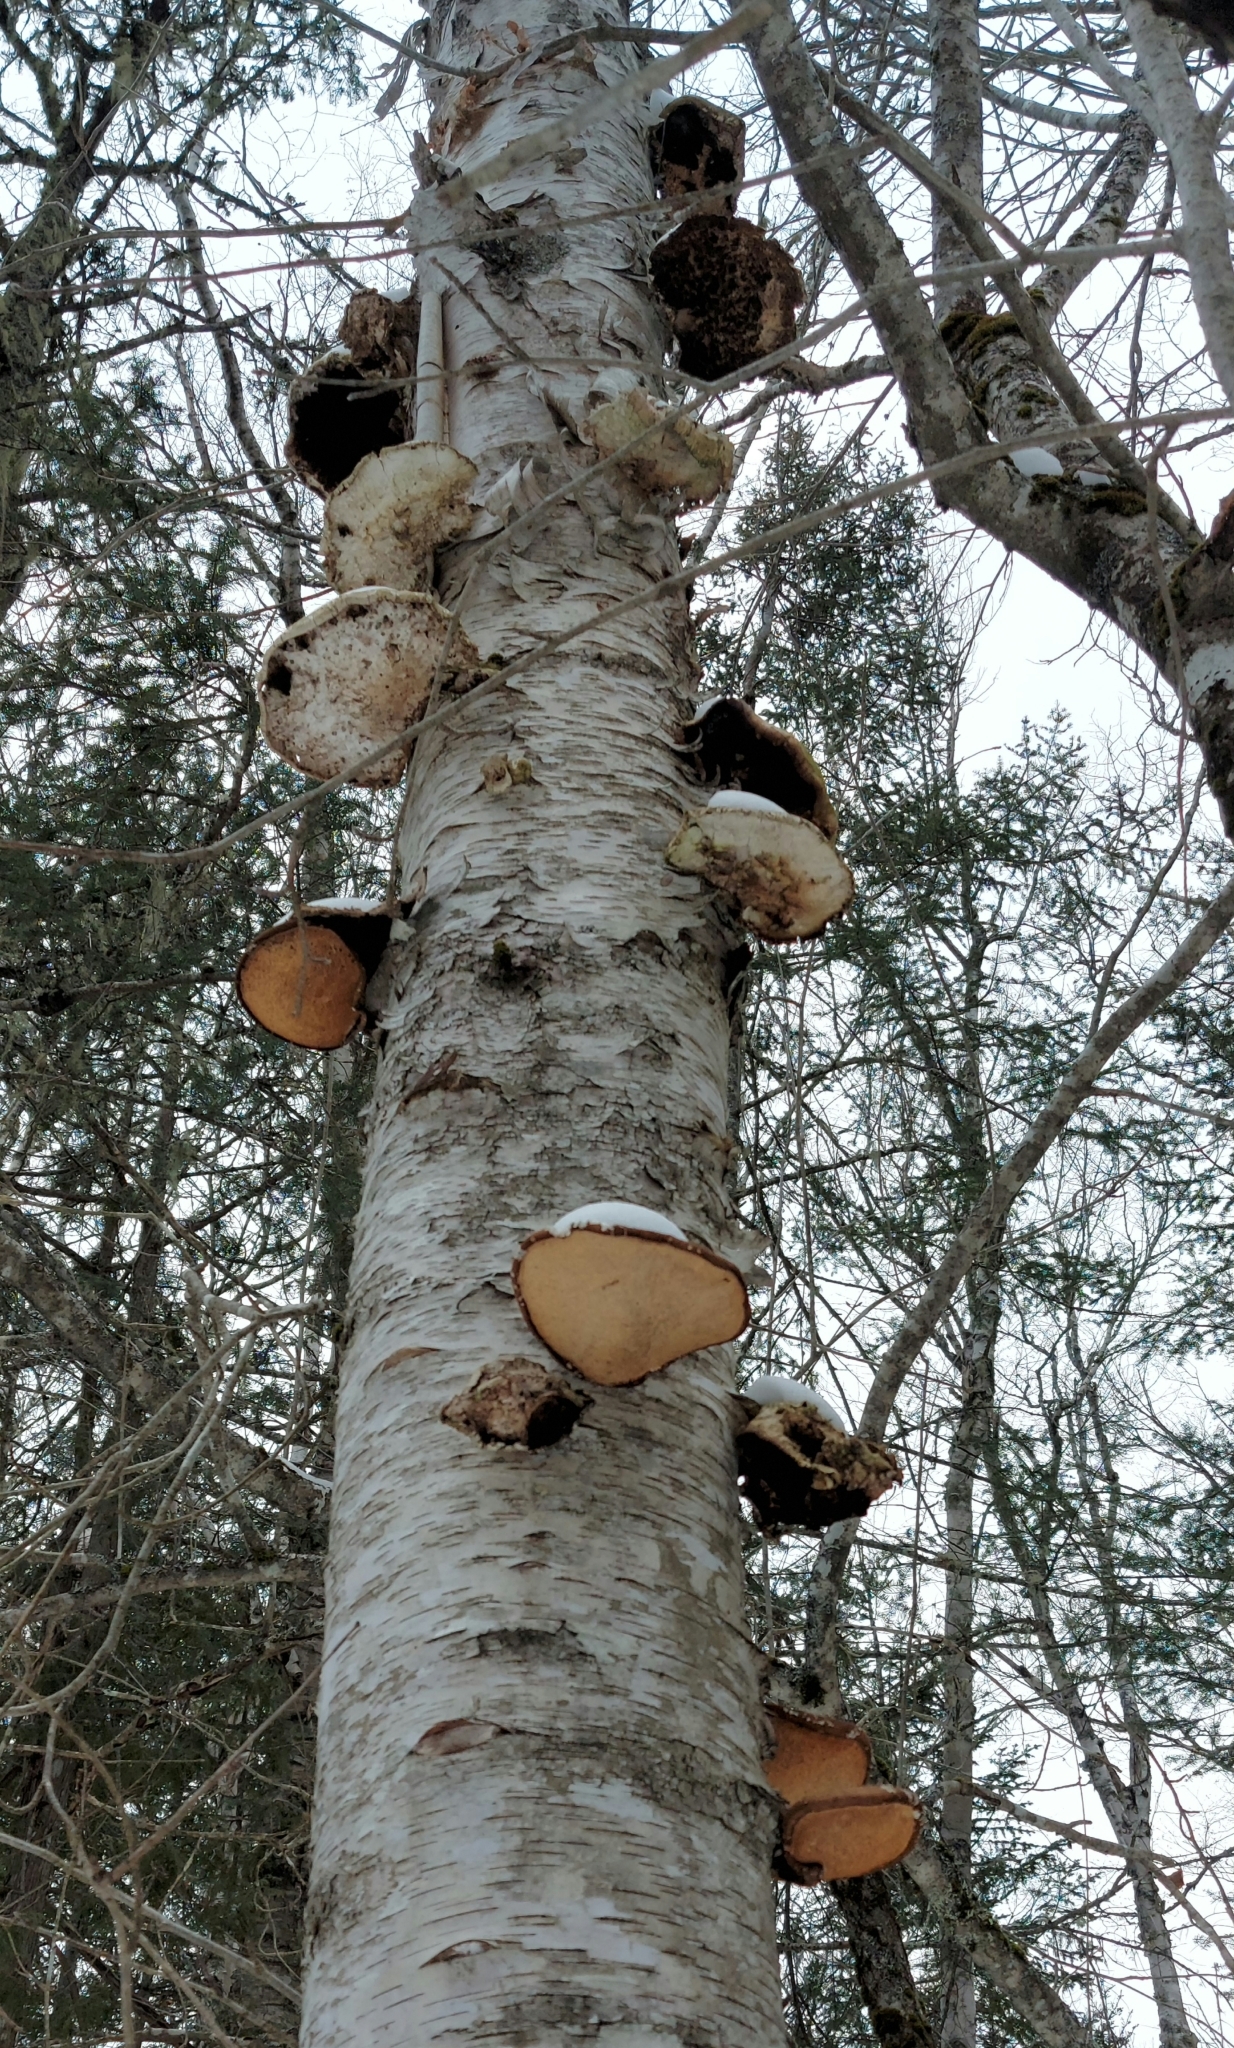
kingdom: Fungi
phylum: Basidiomycota
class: Agaricomycetes
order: Polyporales
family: Fomitopsidaceae
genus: Fomitopsis
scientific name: Fomitopsis betulina
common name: Birch polypore
